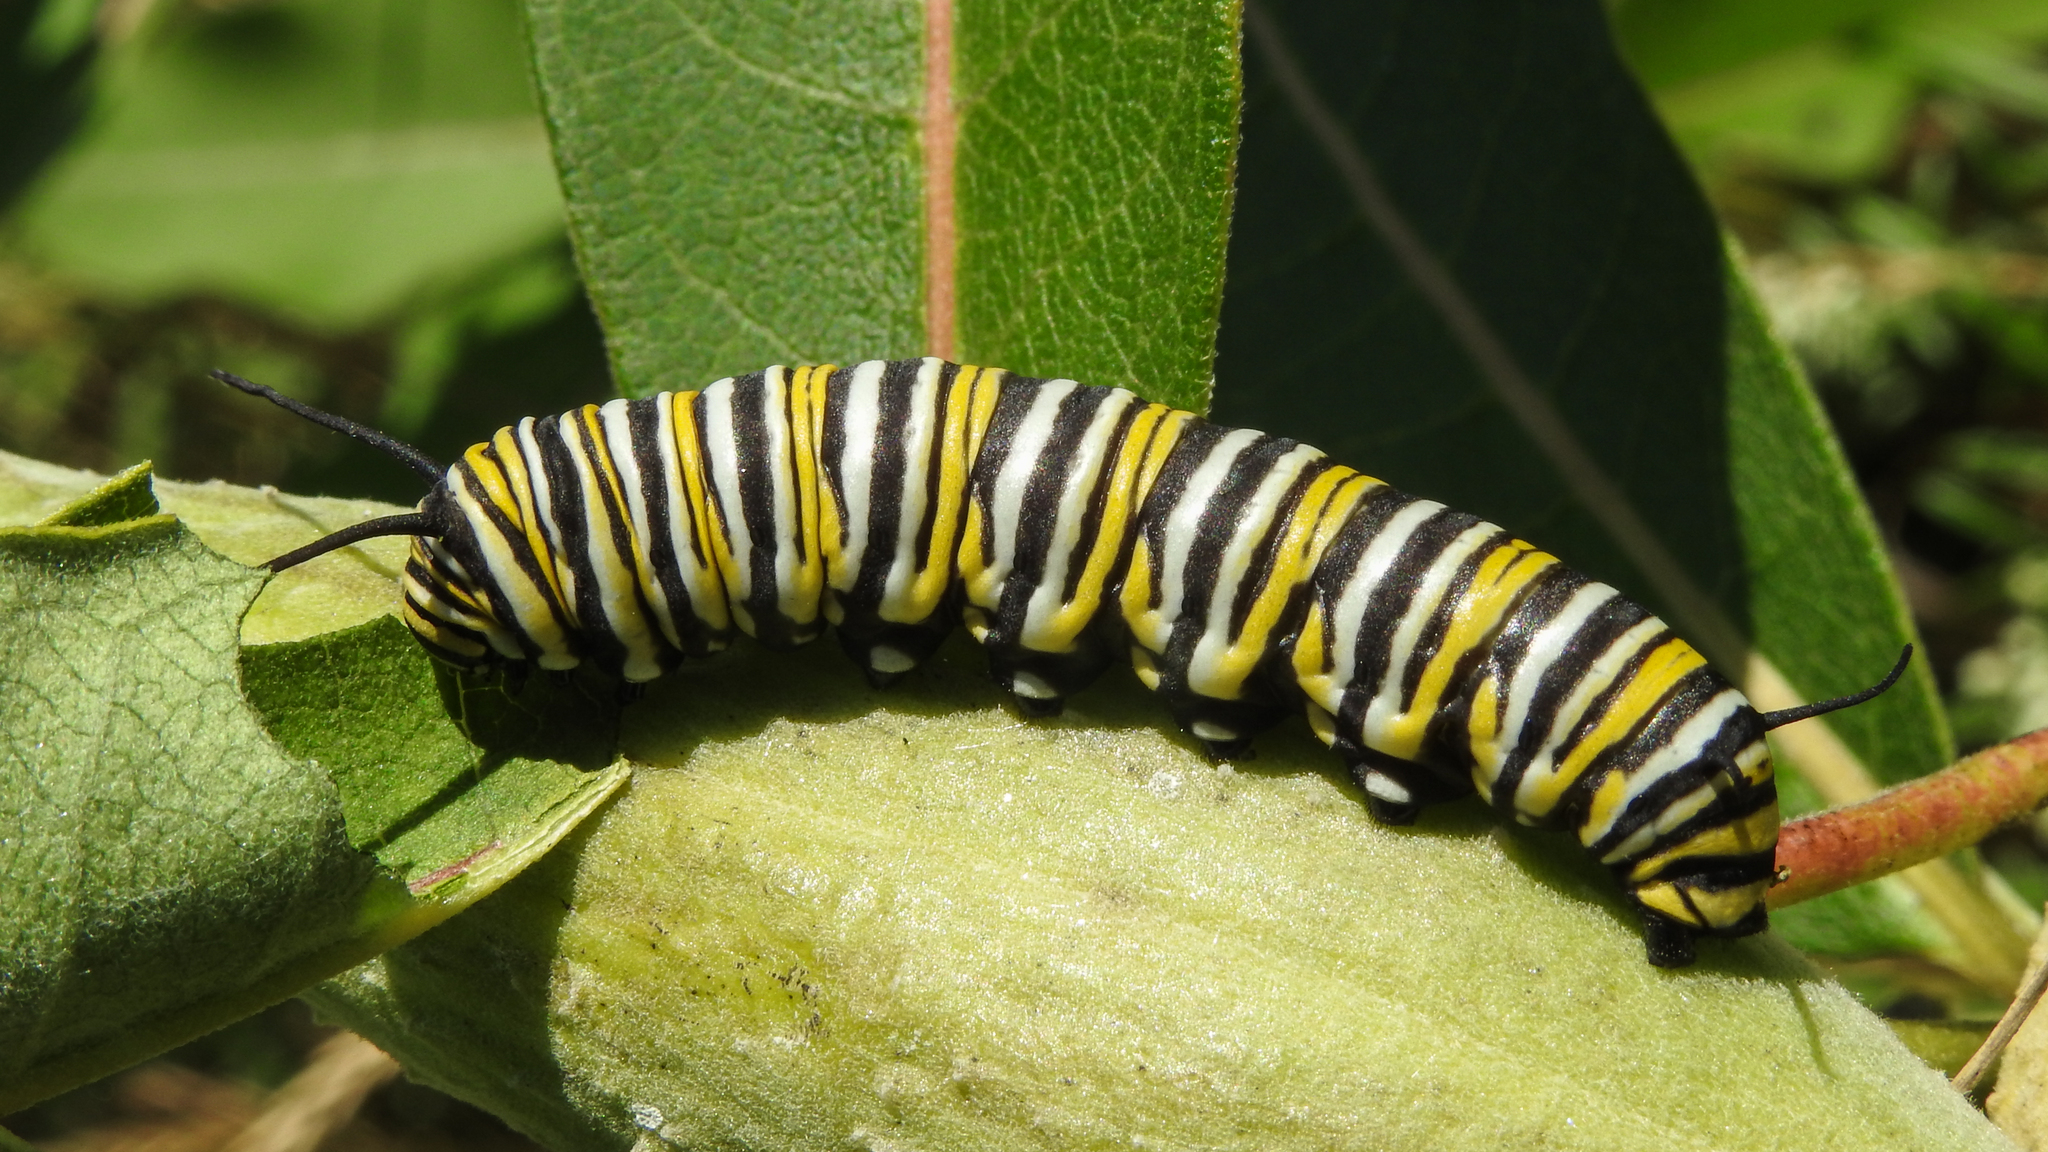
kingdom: Animalia
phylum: Arthropoda
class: Insecta
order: Lepidoptera
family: Nymphalidae
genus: Danaus
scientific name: Danaus plexippus
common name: Monarch
